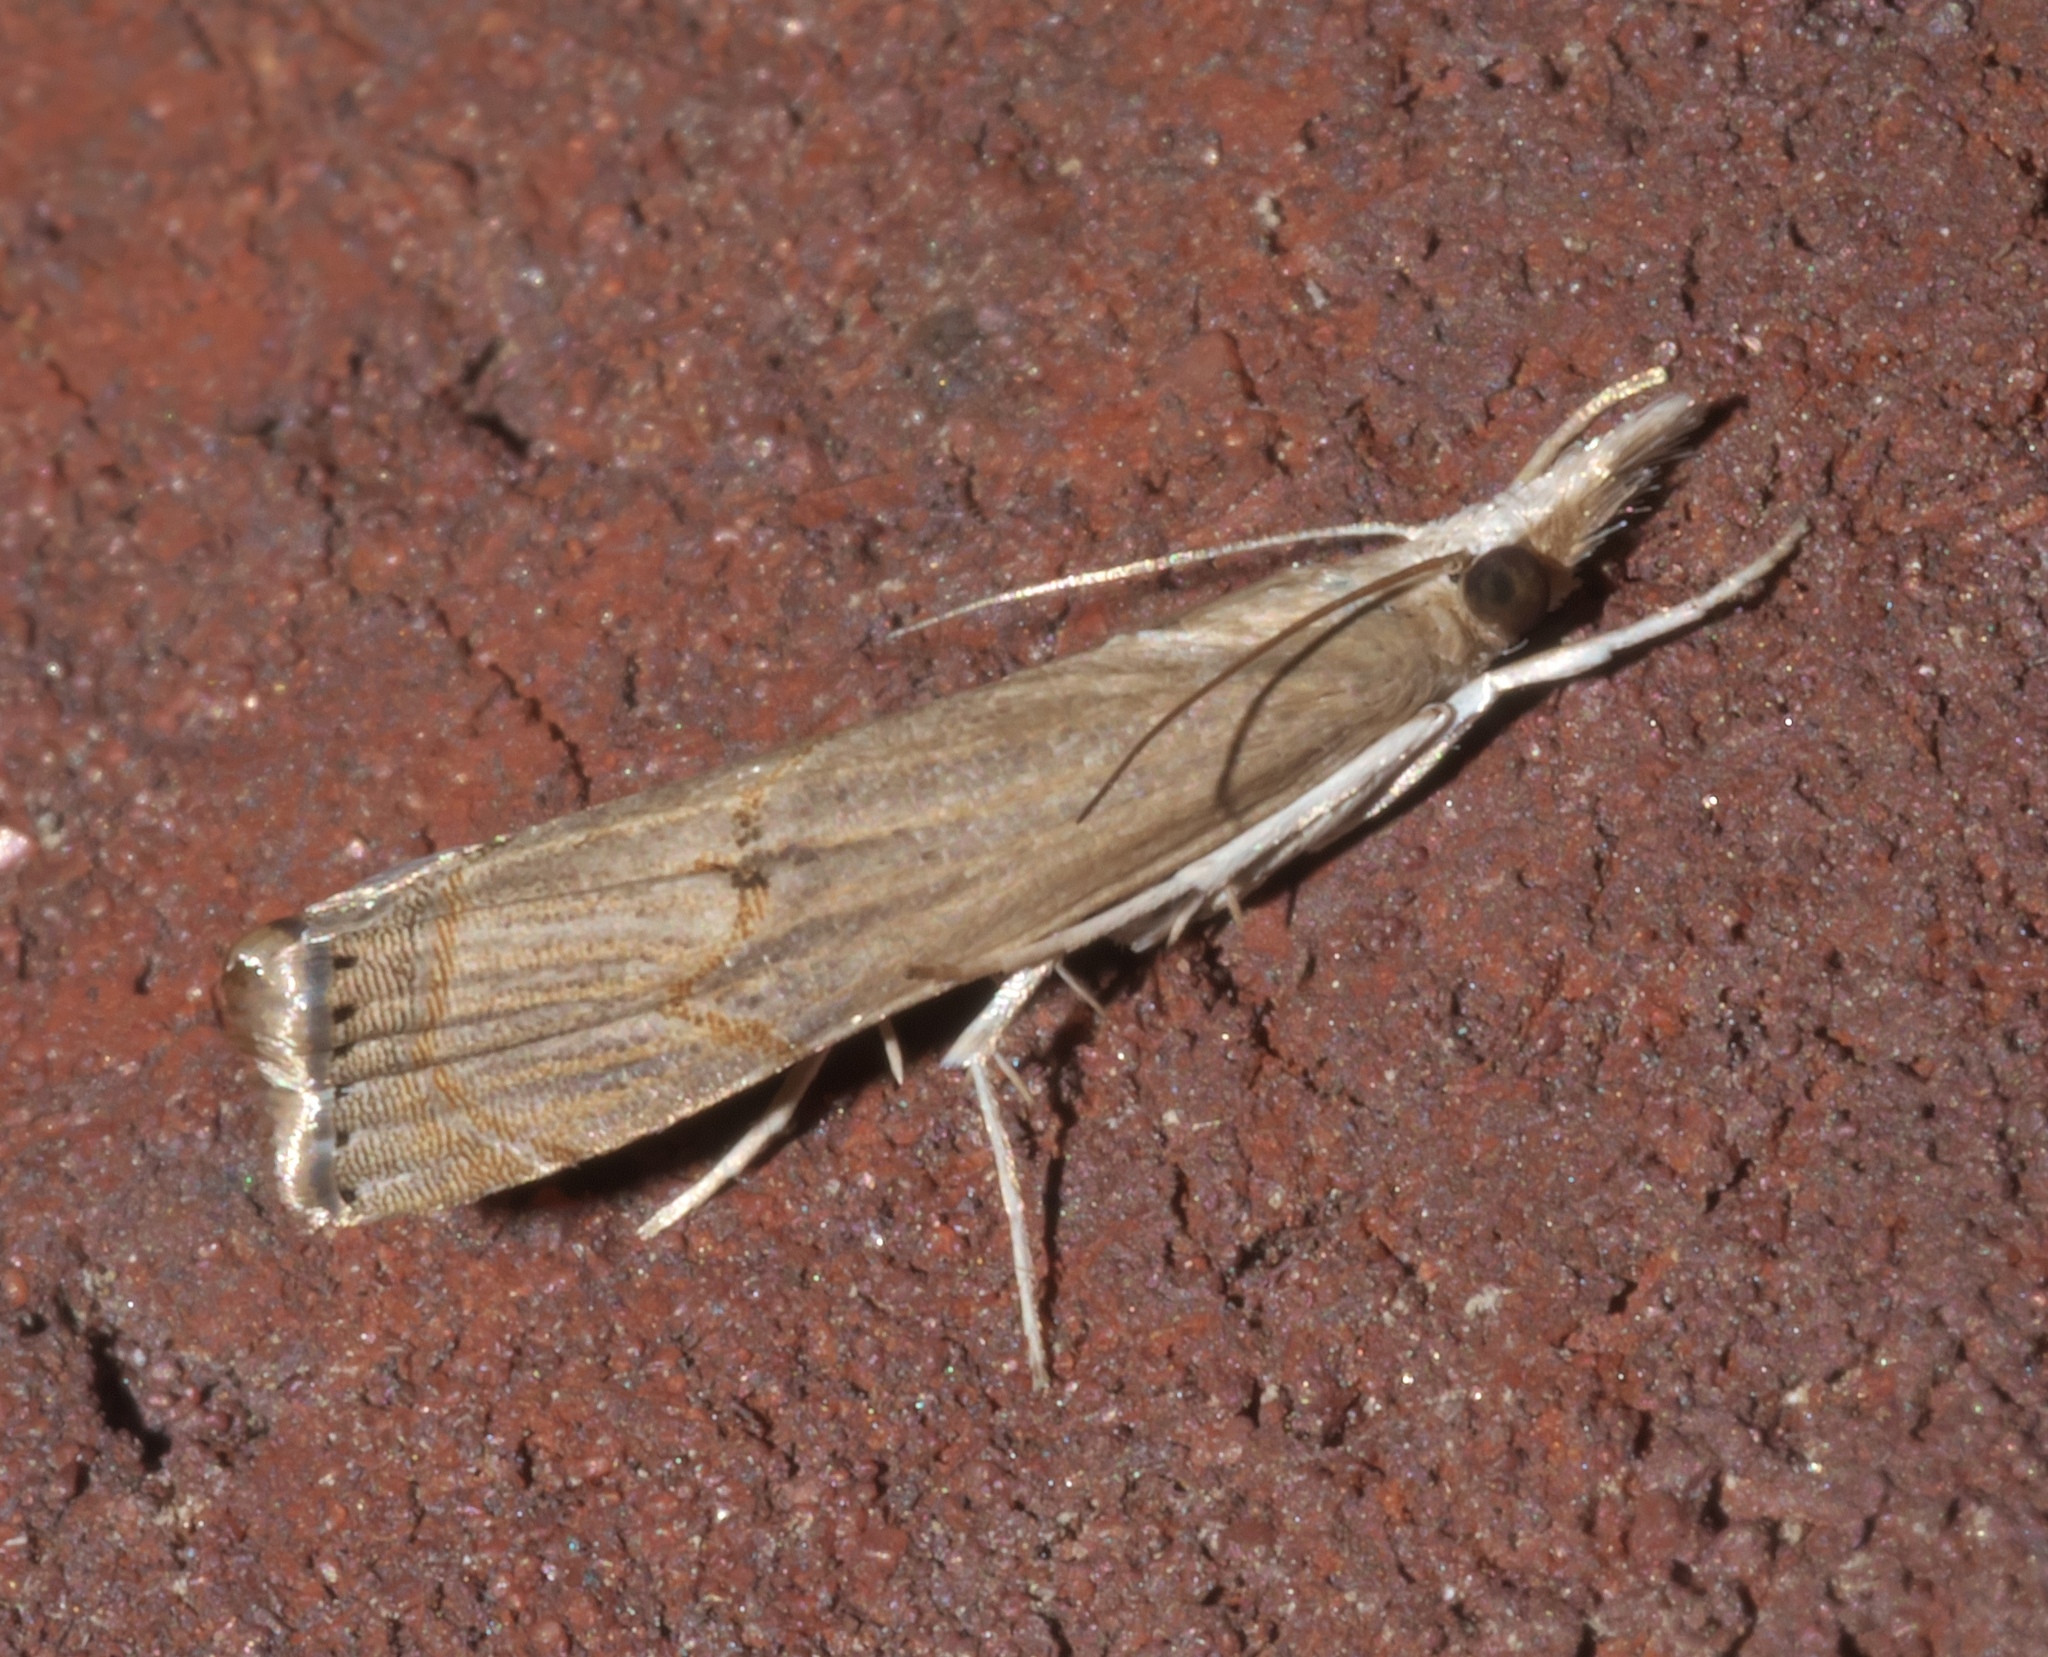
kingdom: Animalia
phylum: Arthropoda
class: Insecta
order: Lepidoptera
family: Crambidae
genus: Parapediasia
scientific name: Parapediasia teterellus
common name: Bluegrass webworm moth
